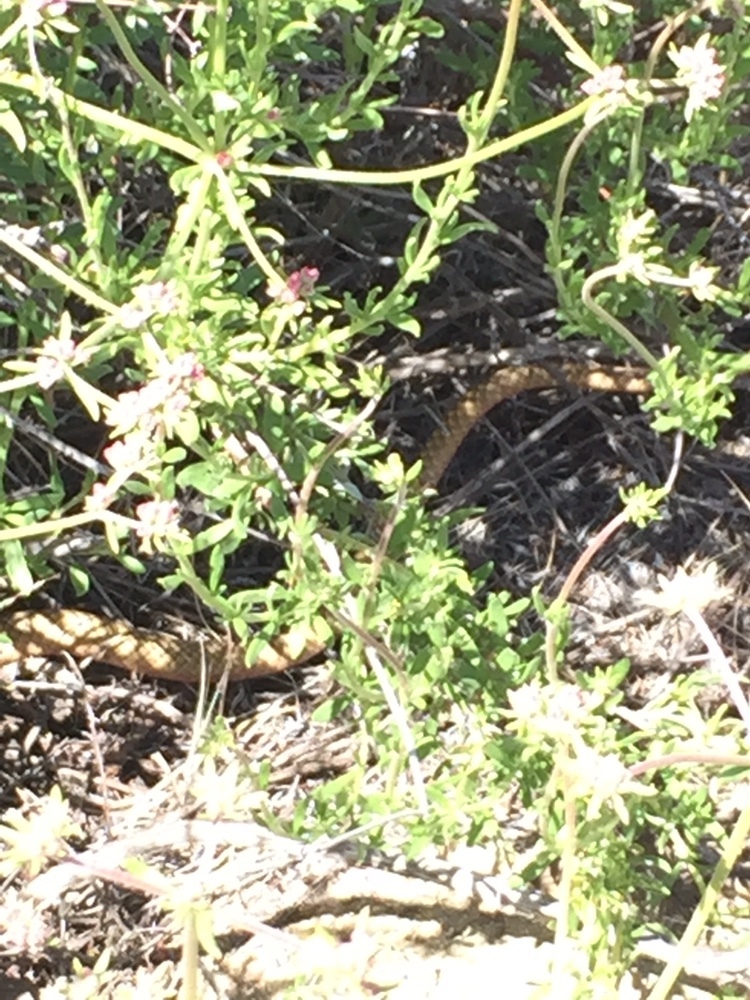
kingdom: Animalia
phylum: Chordata
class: Squamata
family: Colubridae
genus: Masticophis
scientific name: Masticophis flagellum
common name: Coachwhip
